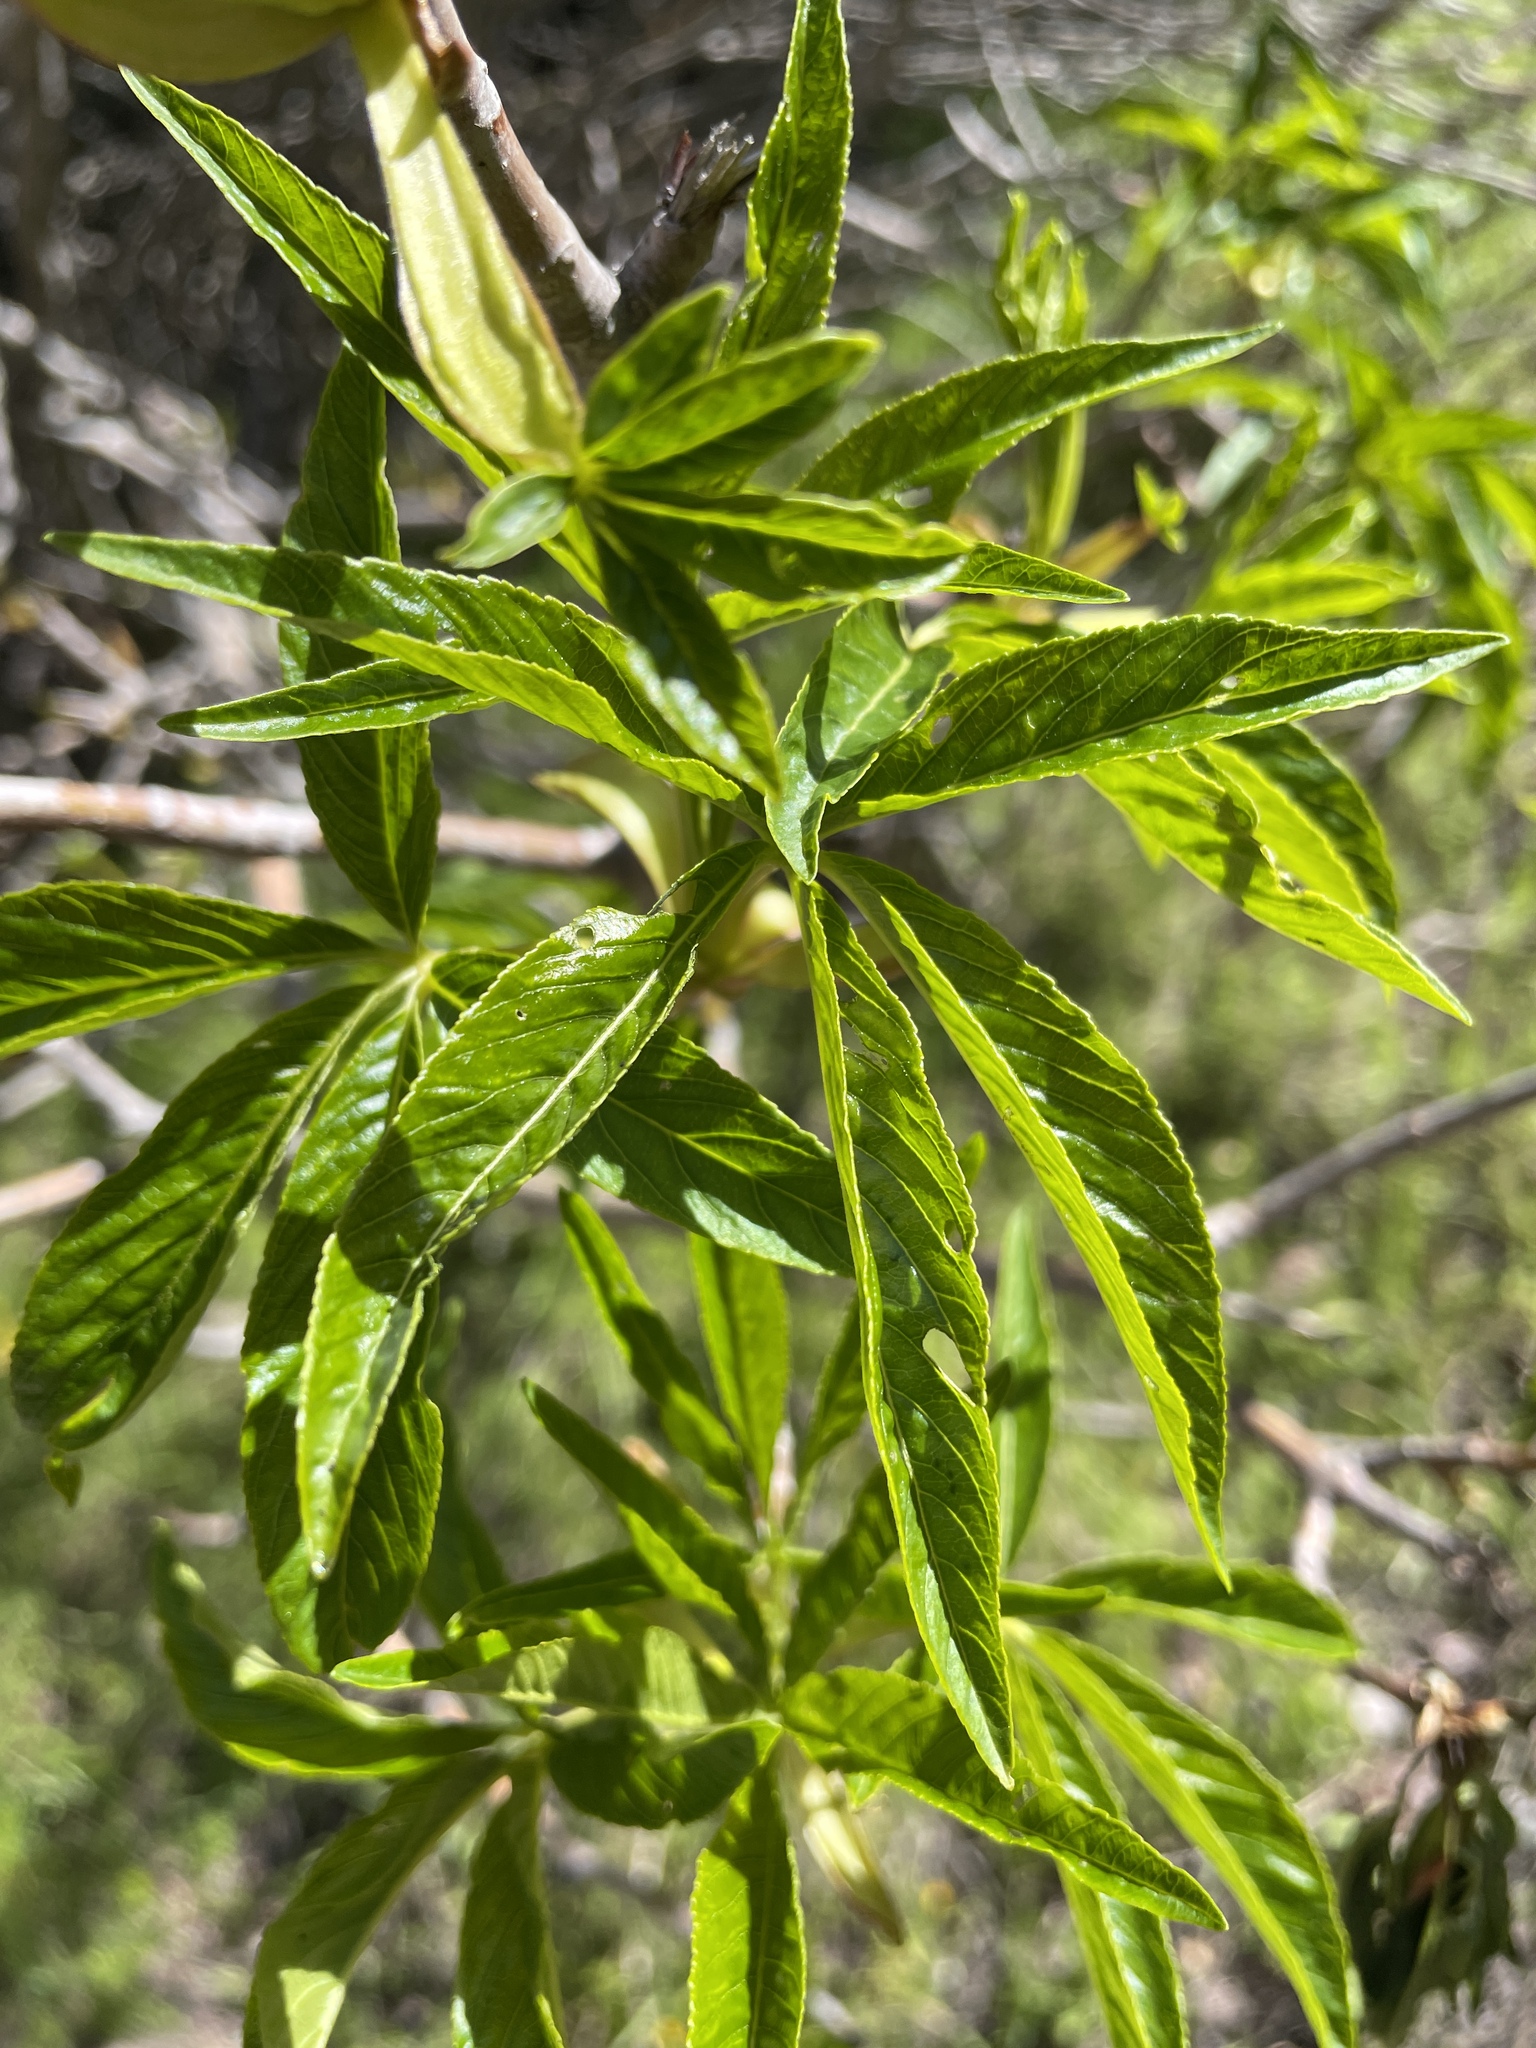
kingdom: Plantae
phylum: Tracheophyta
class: Magnoliopsida
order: Sapindales
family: Sapindaceae
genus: Aesculus
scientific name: Aesculus californica
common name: California buckeye
